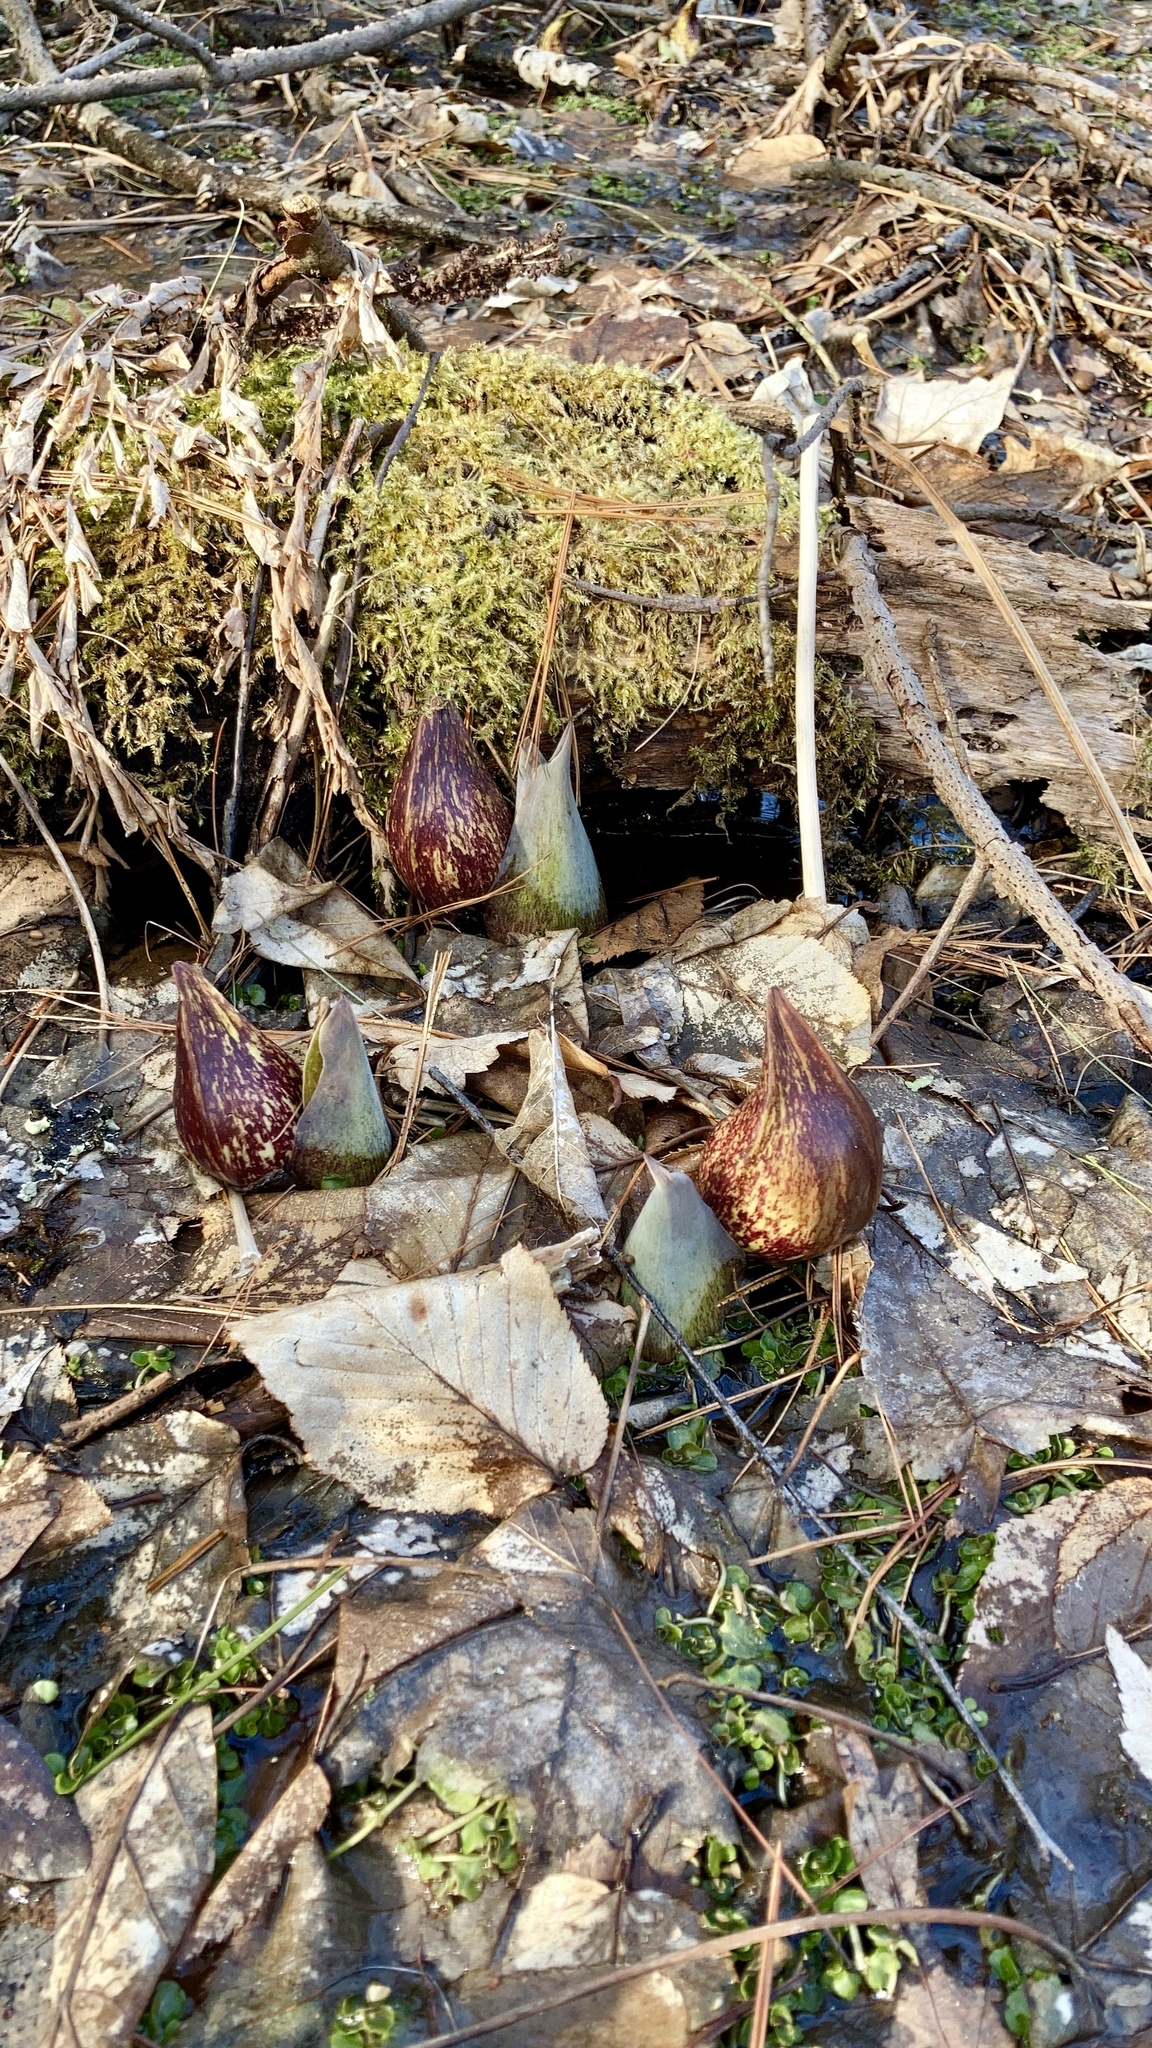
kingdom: Plantae
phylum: Tracheophyta
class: Liliopsida
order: Alismatales
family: Araceae
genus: Symplocarpus
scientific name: Symplocarpus foetidus
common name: Eastern skunk cabbage
